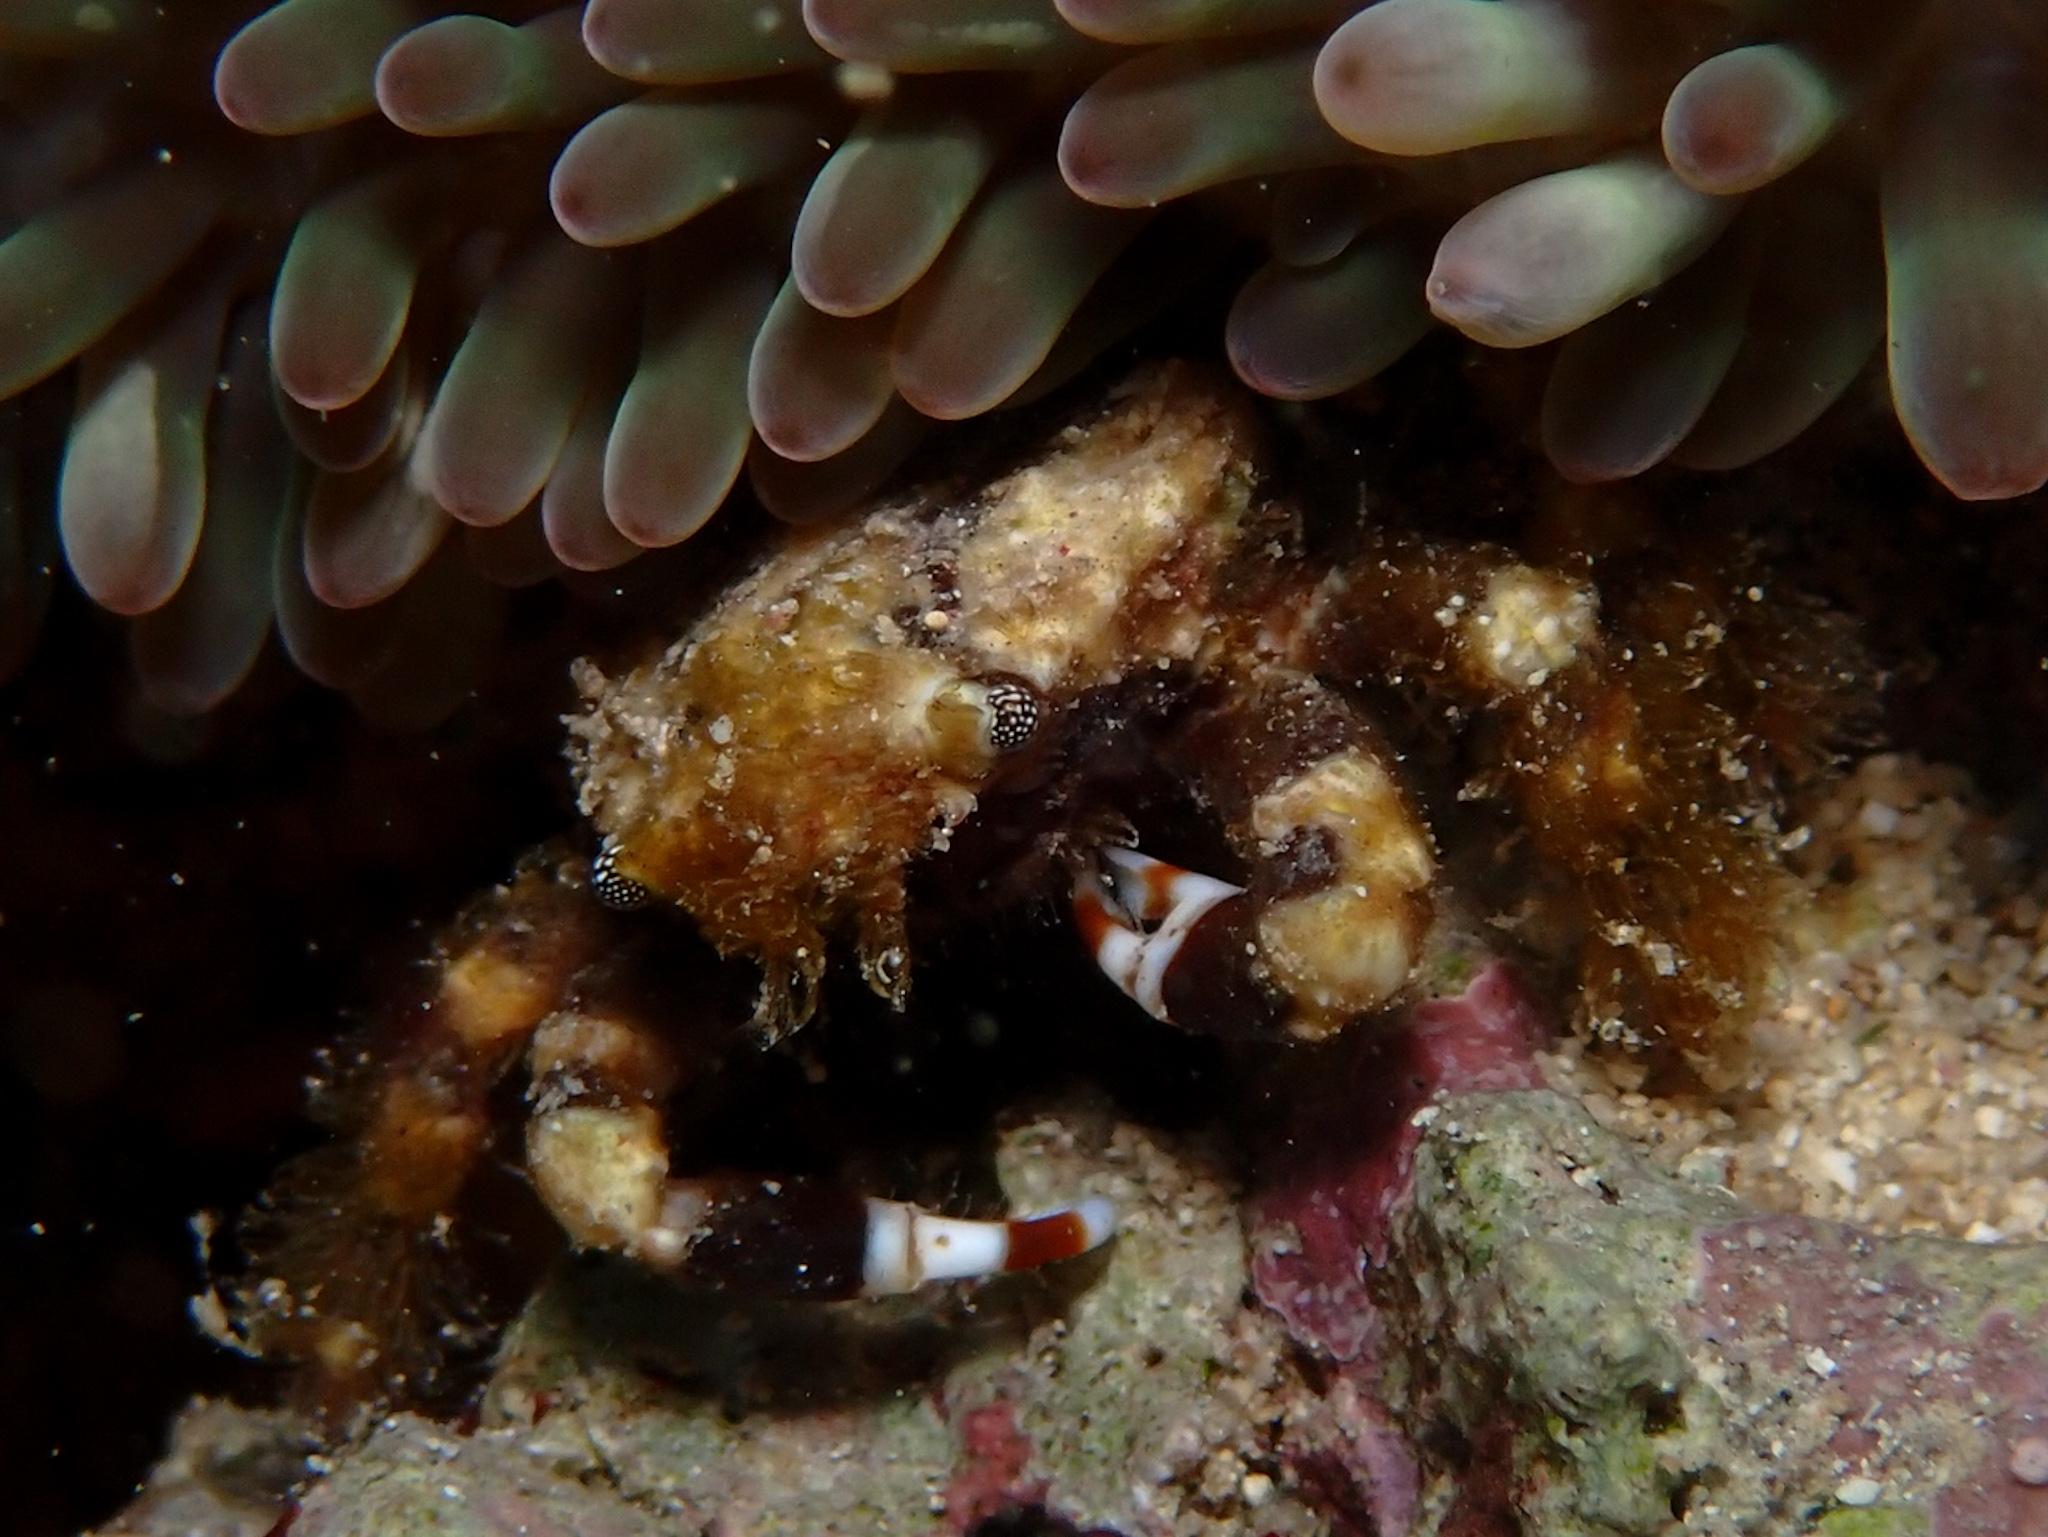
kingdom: Animalia
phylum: Arthropoda
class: Malacostraca
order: Decapoda
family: Mithracidae
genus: Mithraculus
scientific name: Mithraculus cinctimanus
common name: Banded clinging crab
